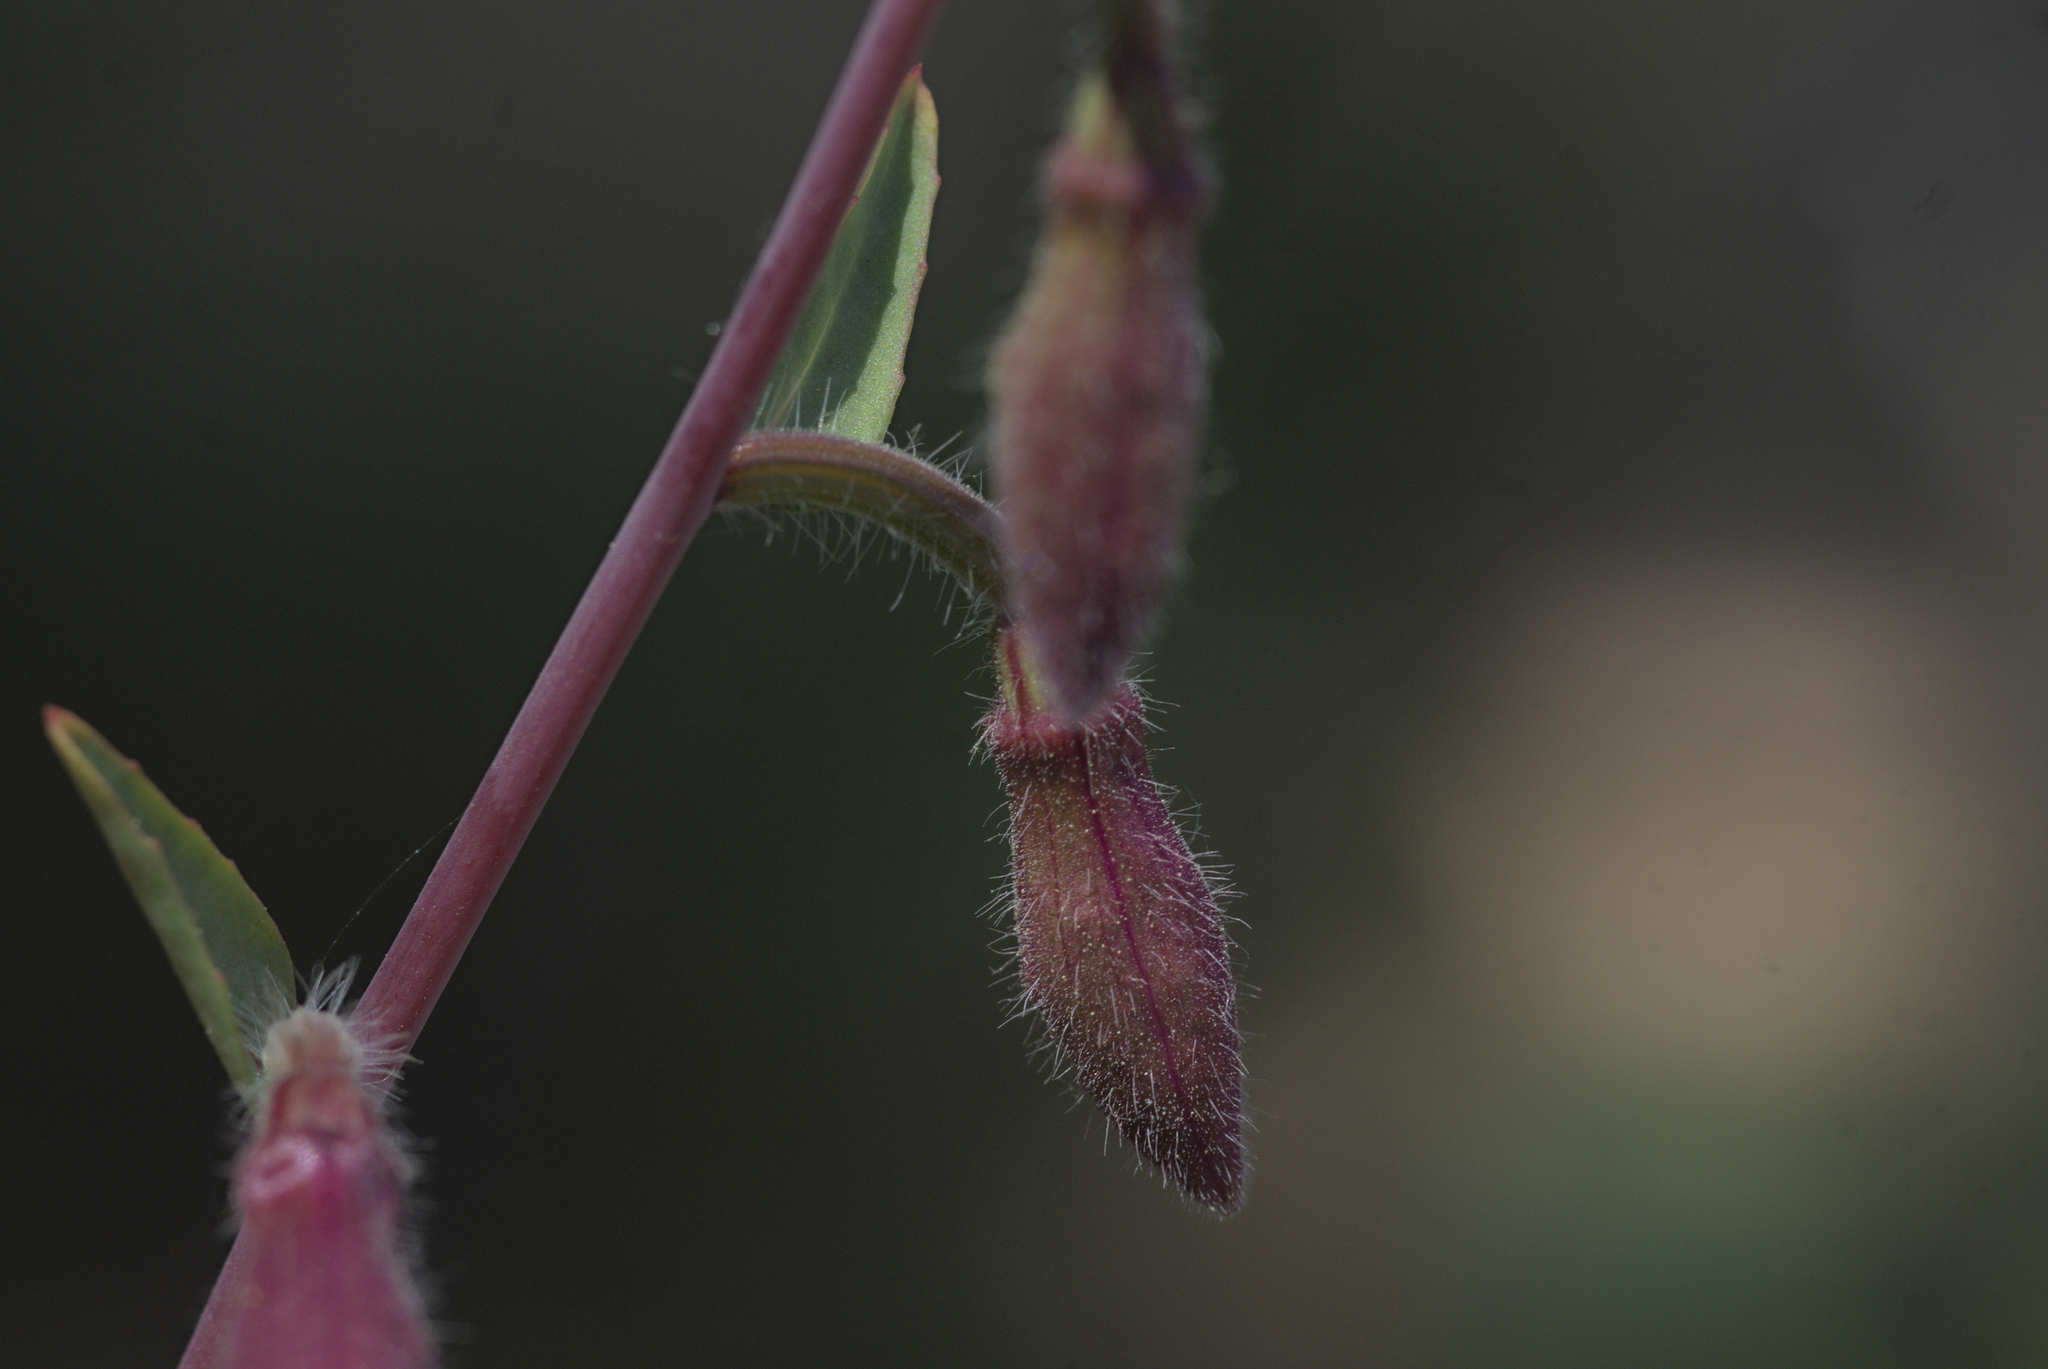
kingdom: Plantae
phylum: Tracheophyta
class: Magnoliopsida
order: Myrtales
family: Onagraceae
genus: Clarkia
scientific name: Clarkia unguiculata
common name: Clarkia
